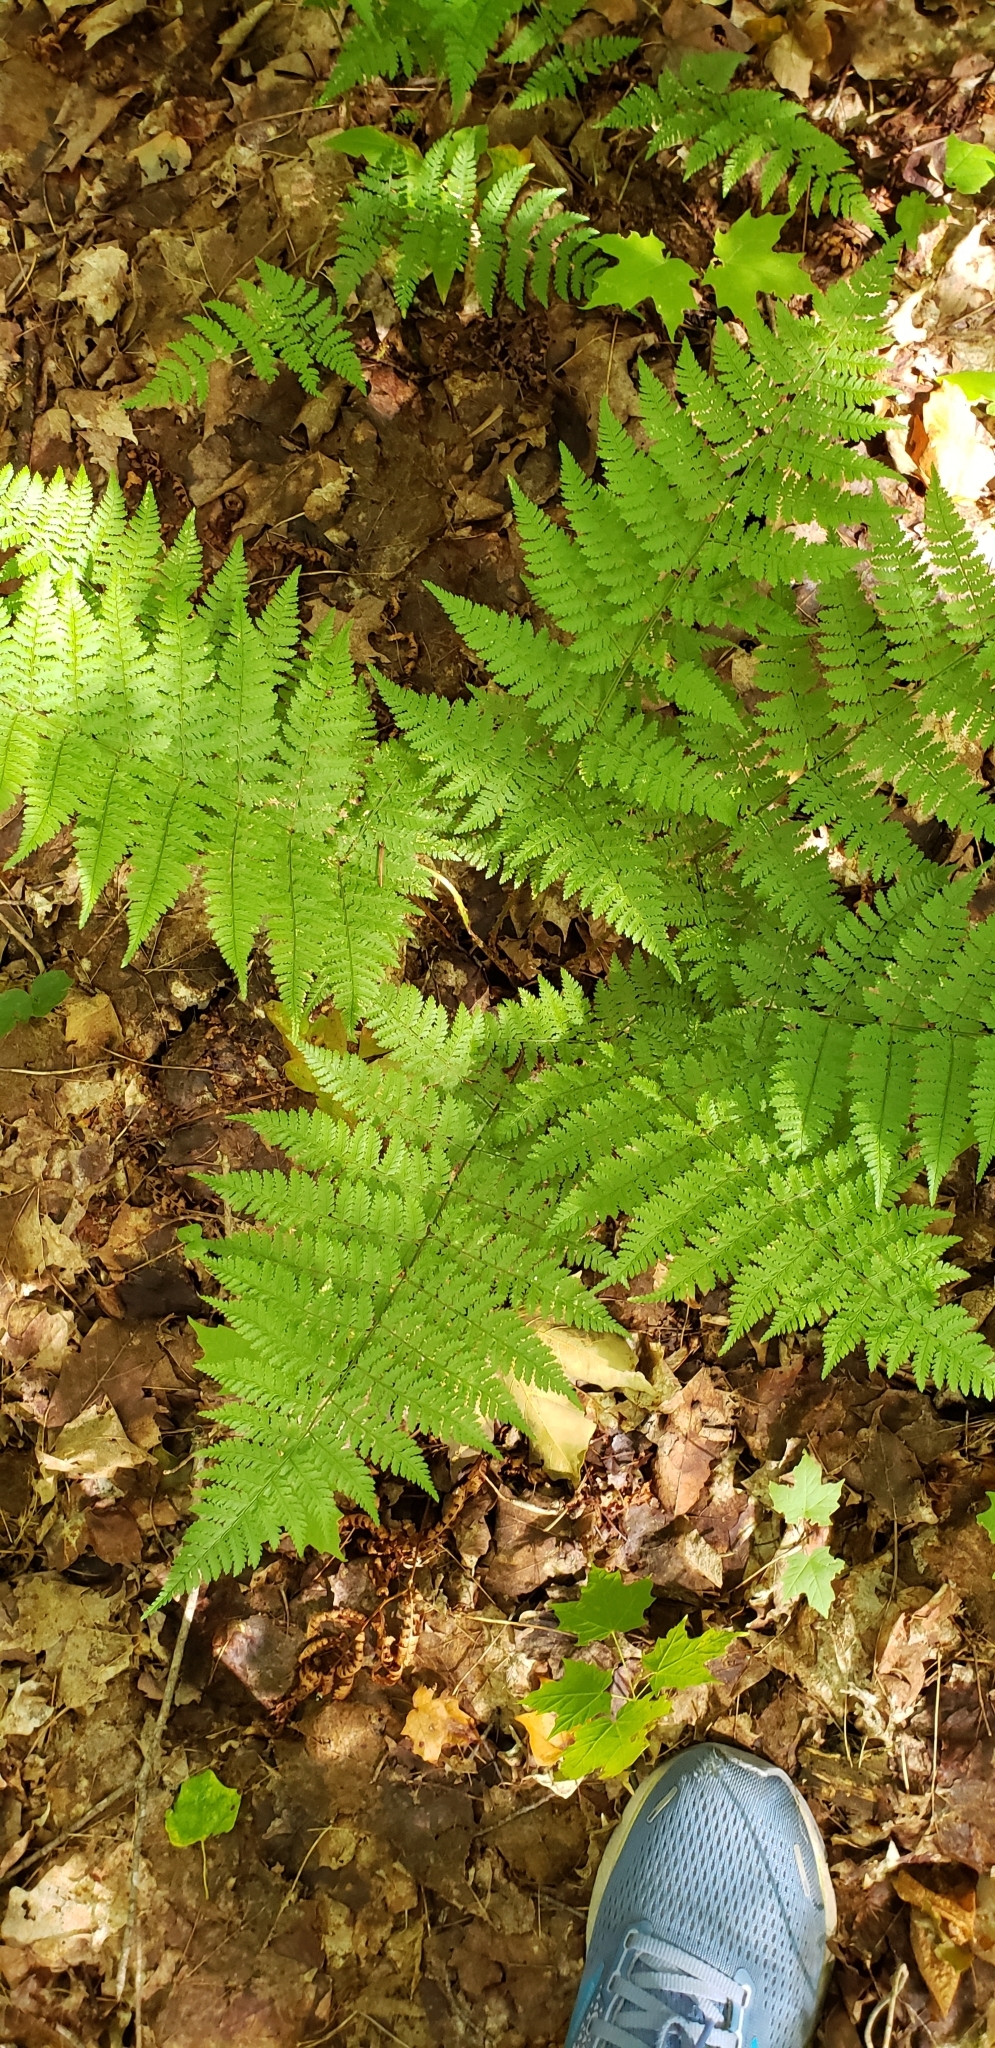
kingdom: Plantae
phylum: Tracheophyta
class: Polypodiopsida
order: Polypodiales
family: Dryopteridaceae
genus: Dryopteris
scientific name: Dryopteris intermedia
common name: Evergreen wood fern
